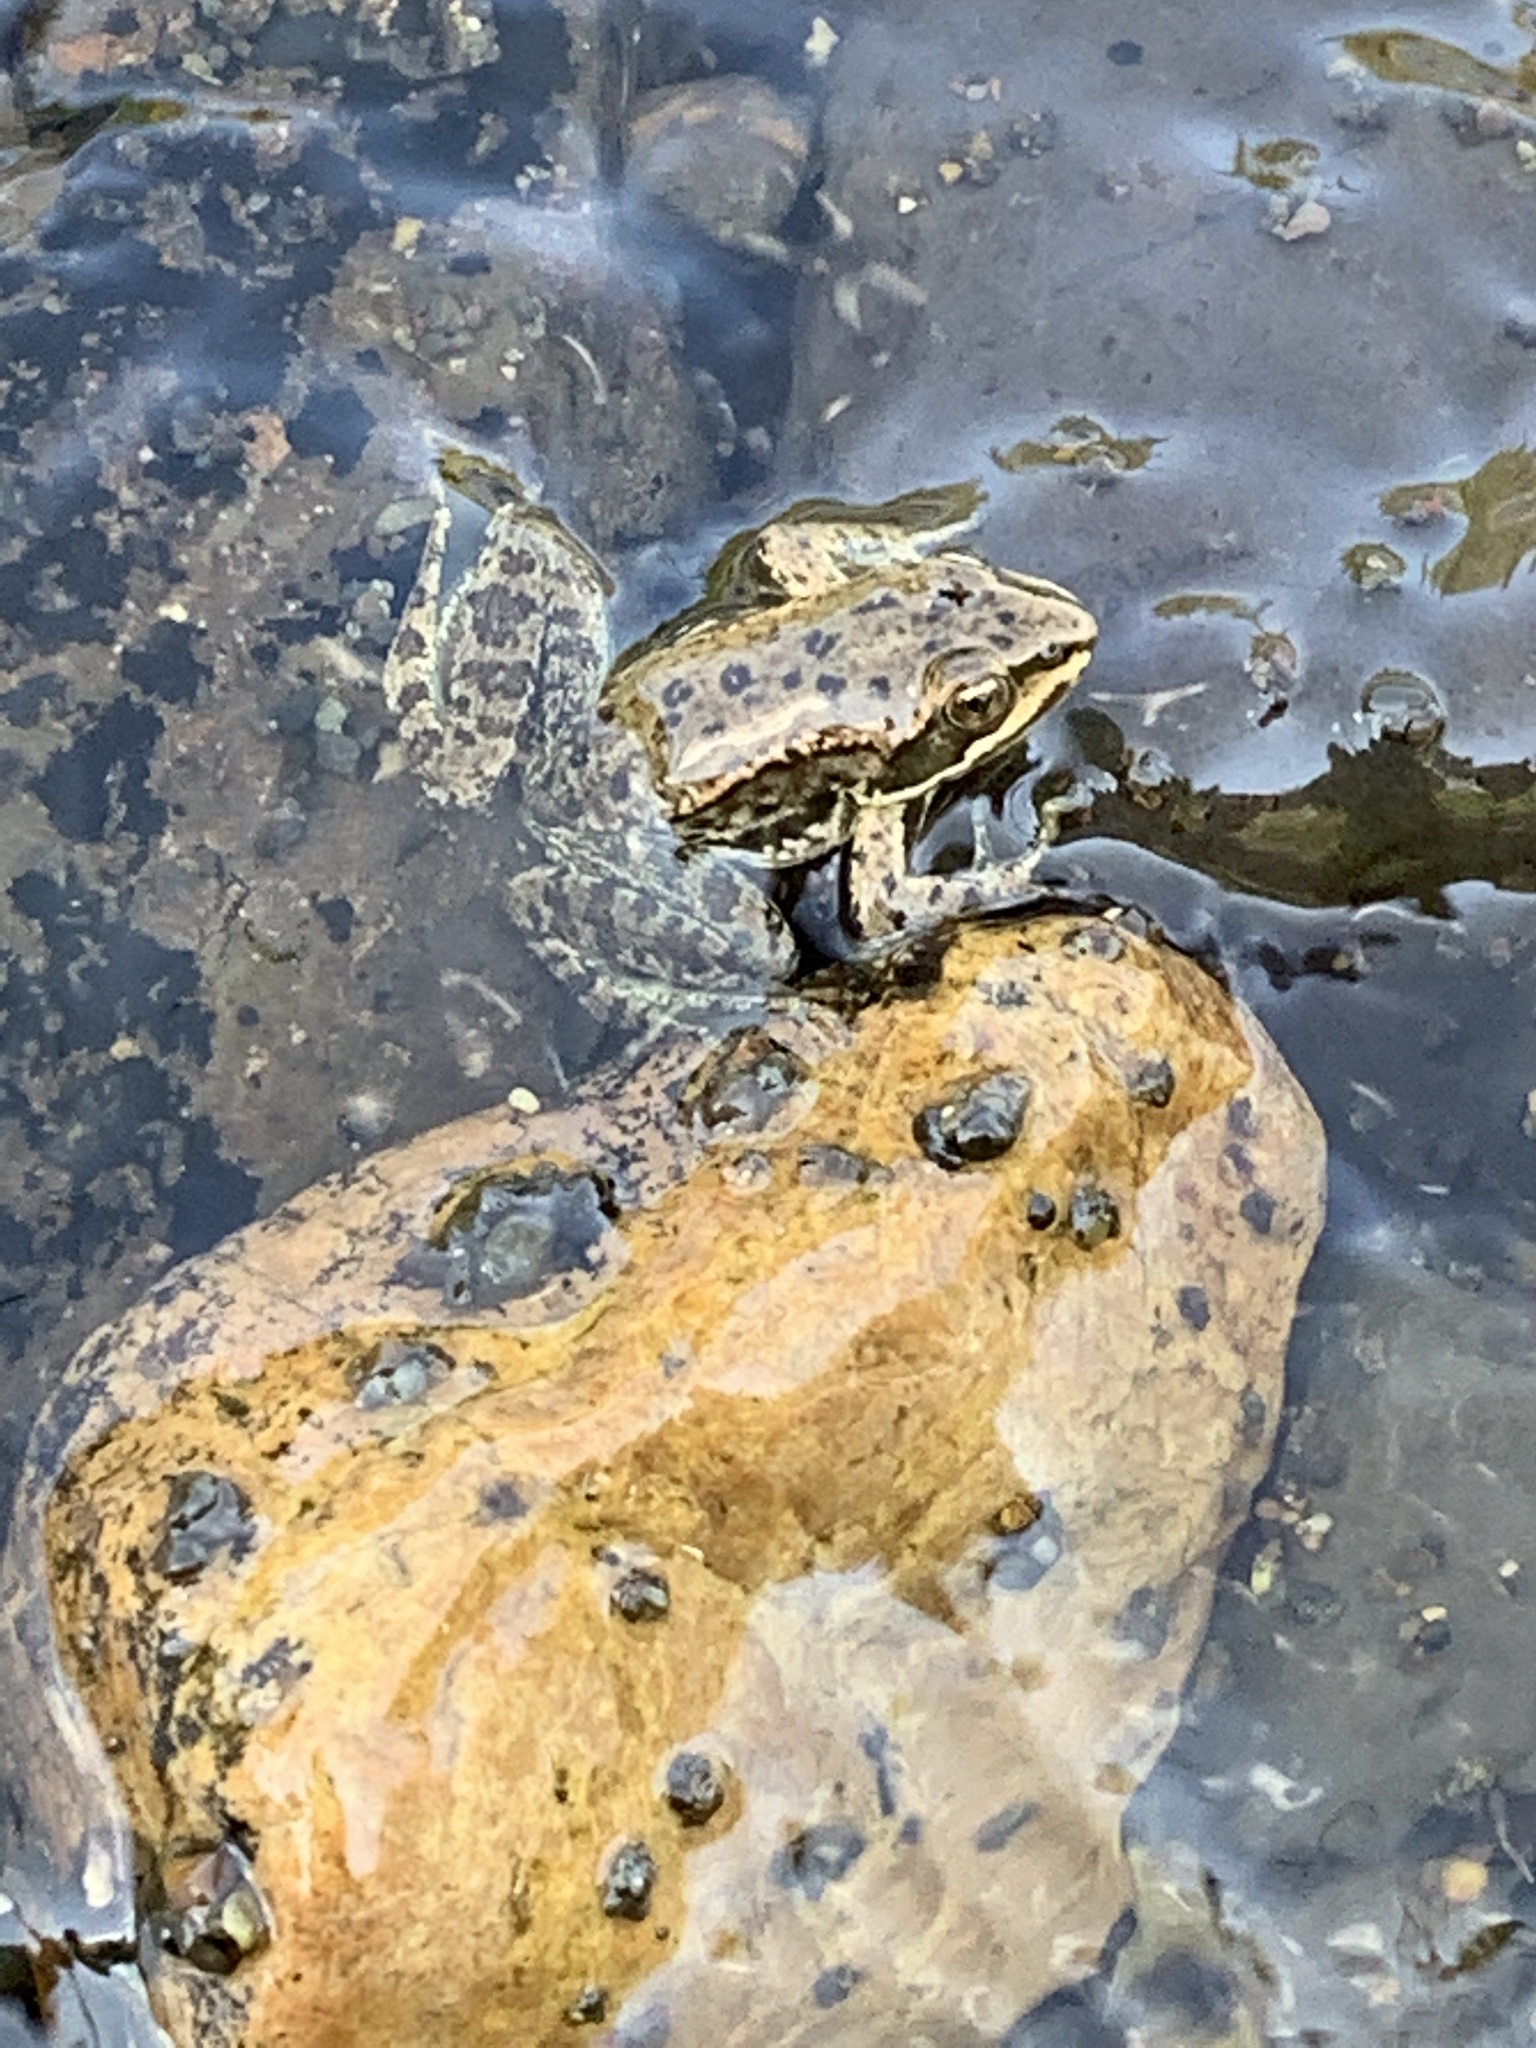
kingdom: Animalia
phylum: Chordata
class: Amphibia
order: Anura
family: Ranidae
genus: Rana
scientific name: Rana luteiventris
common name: Columbia spotted frog
